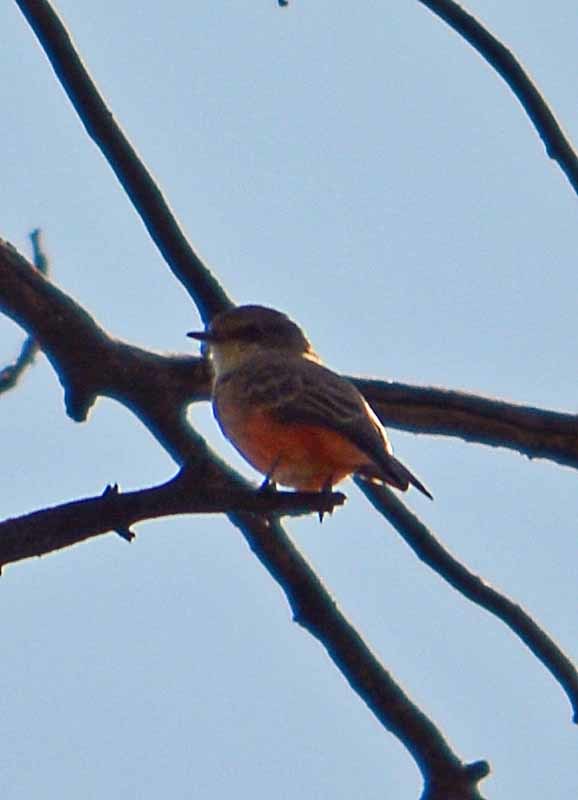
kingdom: Animalia
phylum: Chordata
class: Aves
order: Passeriformes
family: Tyrannidae
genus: Pyrocephalus
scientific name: Pyrocephalus rubinus
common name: Vermilion flycatcher
